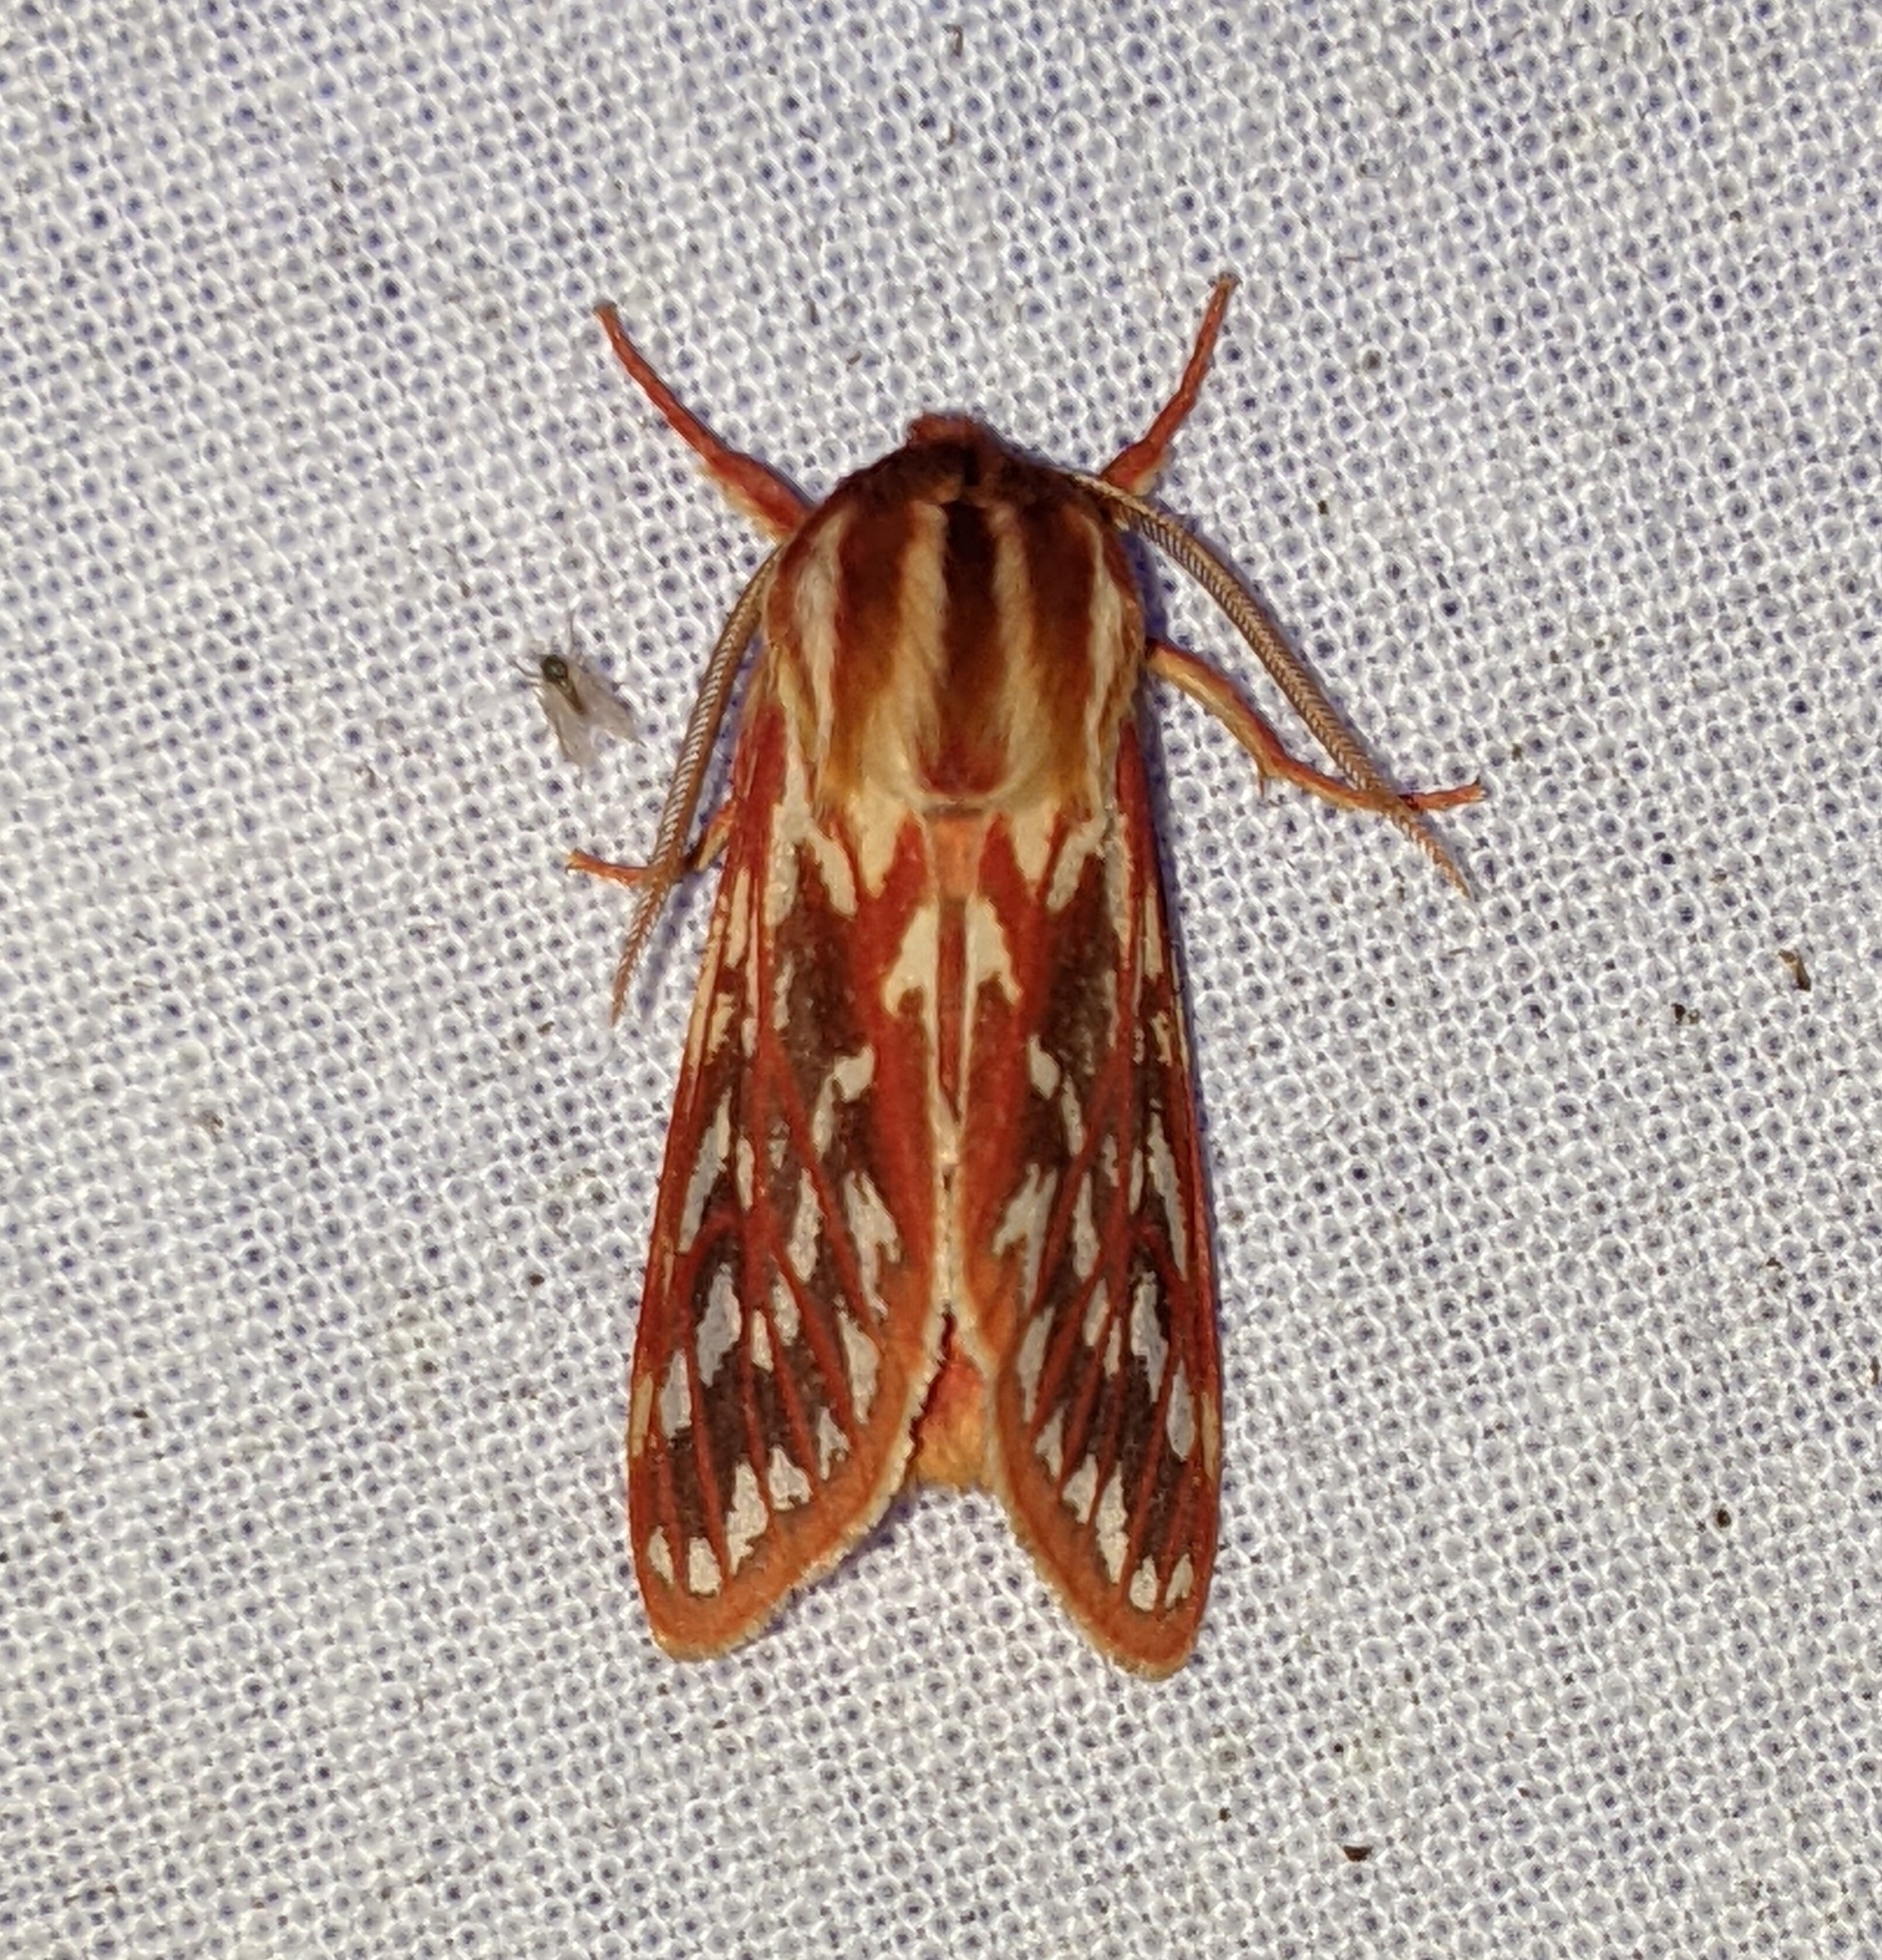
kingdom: Animalia
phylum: Arthropoda
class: Insecta
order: Lepidoptera
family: Erebidae
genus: Lophocampa
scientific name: Lophocampa roseata
